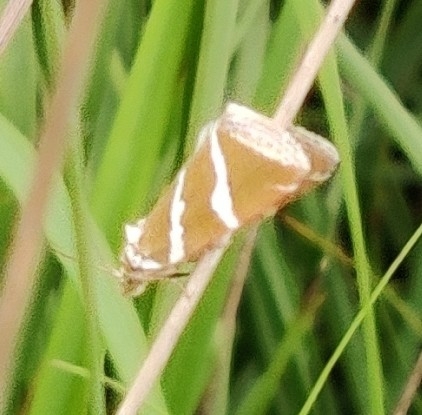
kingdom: Animalia
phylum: Arthropoda
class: Insecta
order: Lepidoptera
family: Noctuidae
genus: Deltote
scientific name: Deltote bankiana
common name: Silver barred
